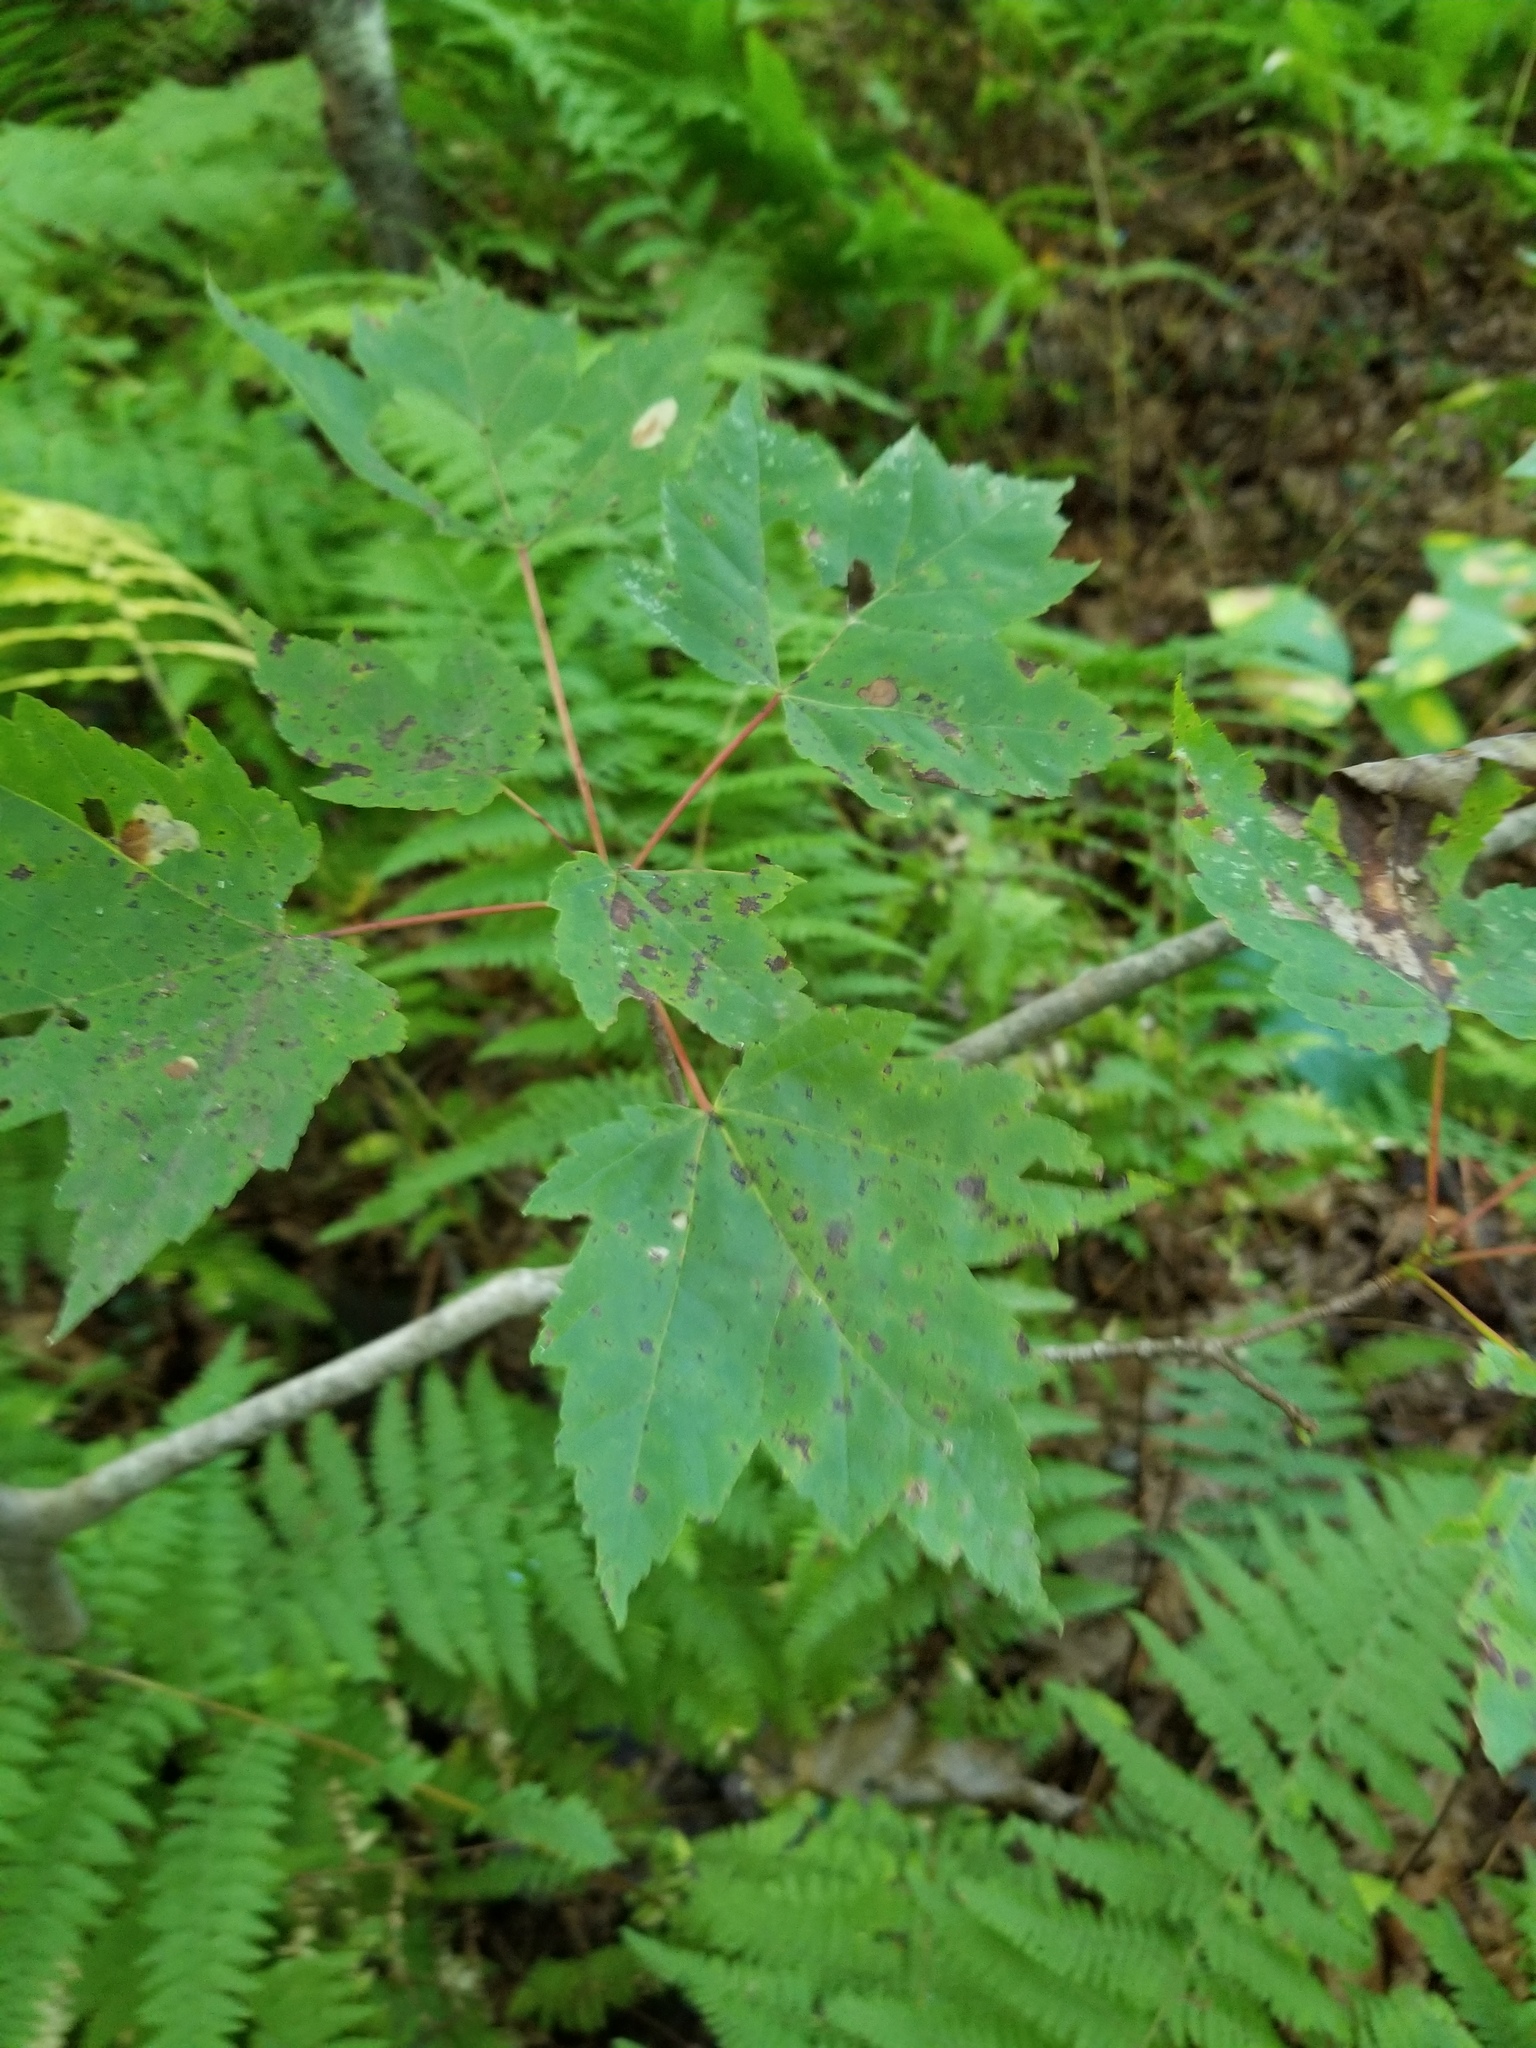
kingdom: Plantae
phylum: Tracheophyta
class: Magnoliopsida
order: Sapindales
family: Sapindaceae
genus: Acer
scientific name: Acer rubrum
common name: Red maple
